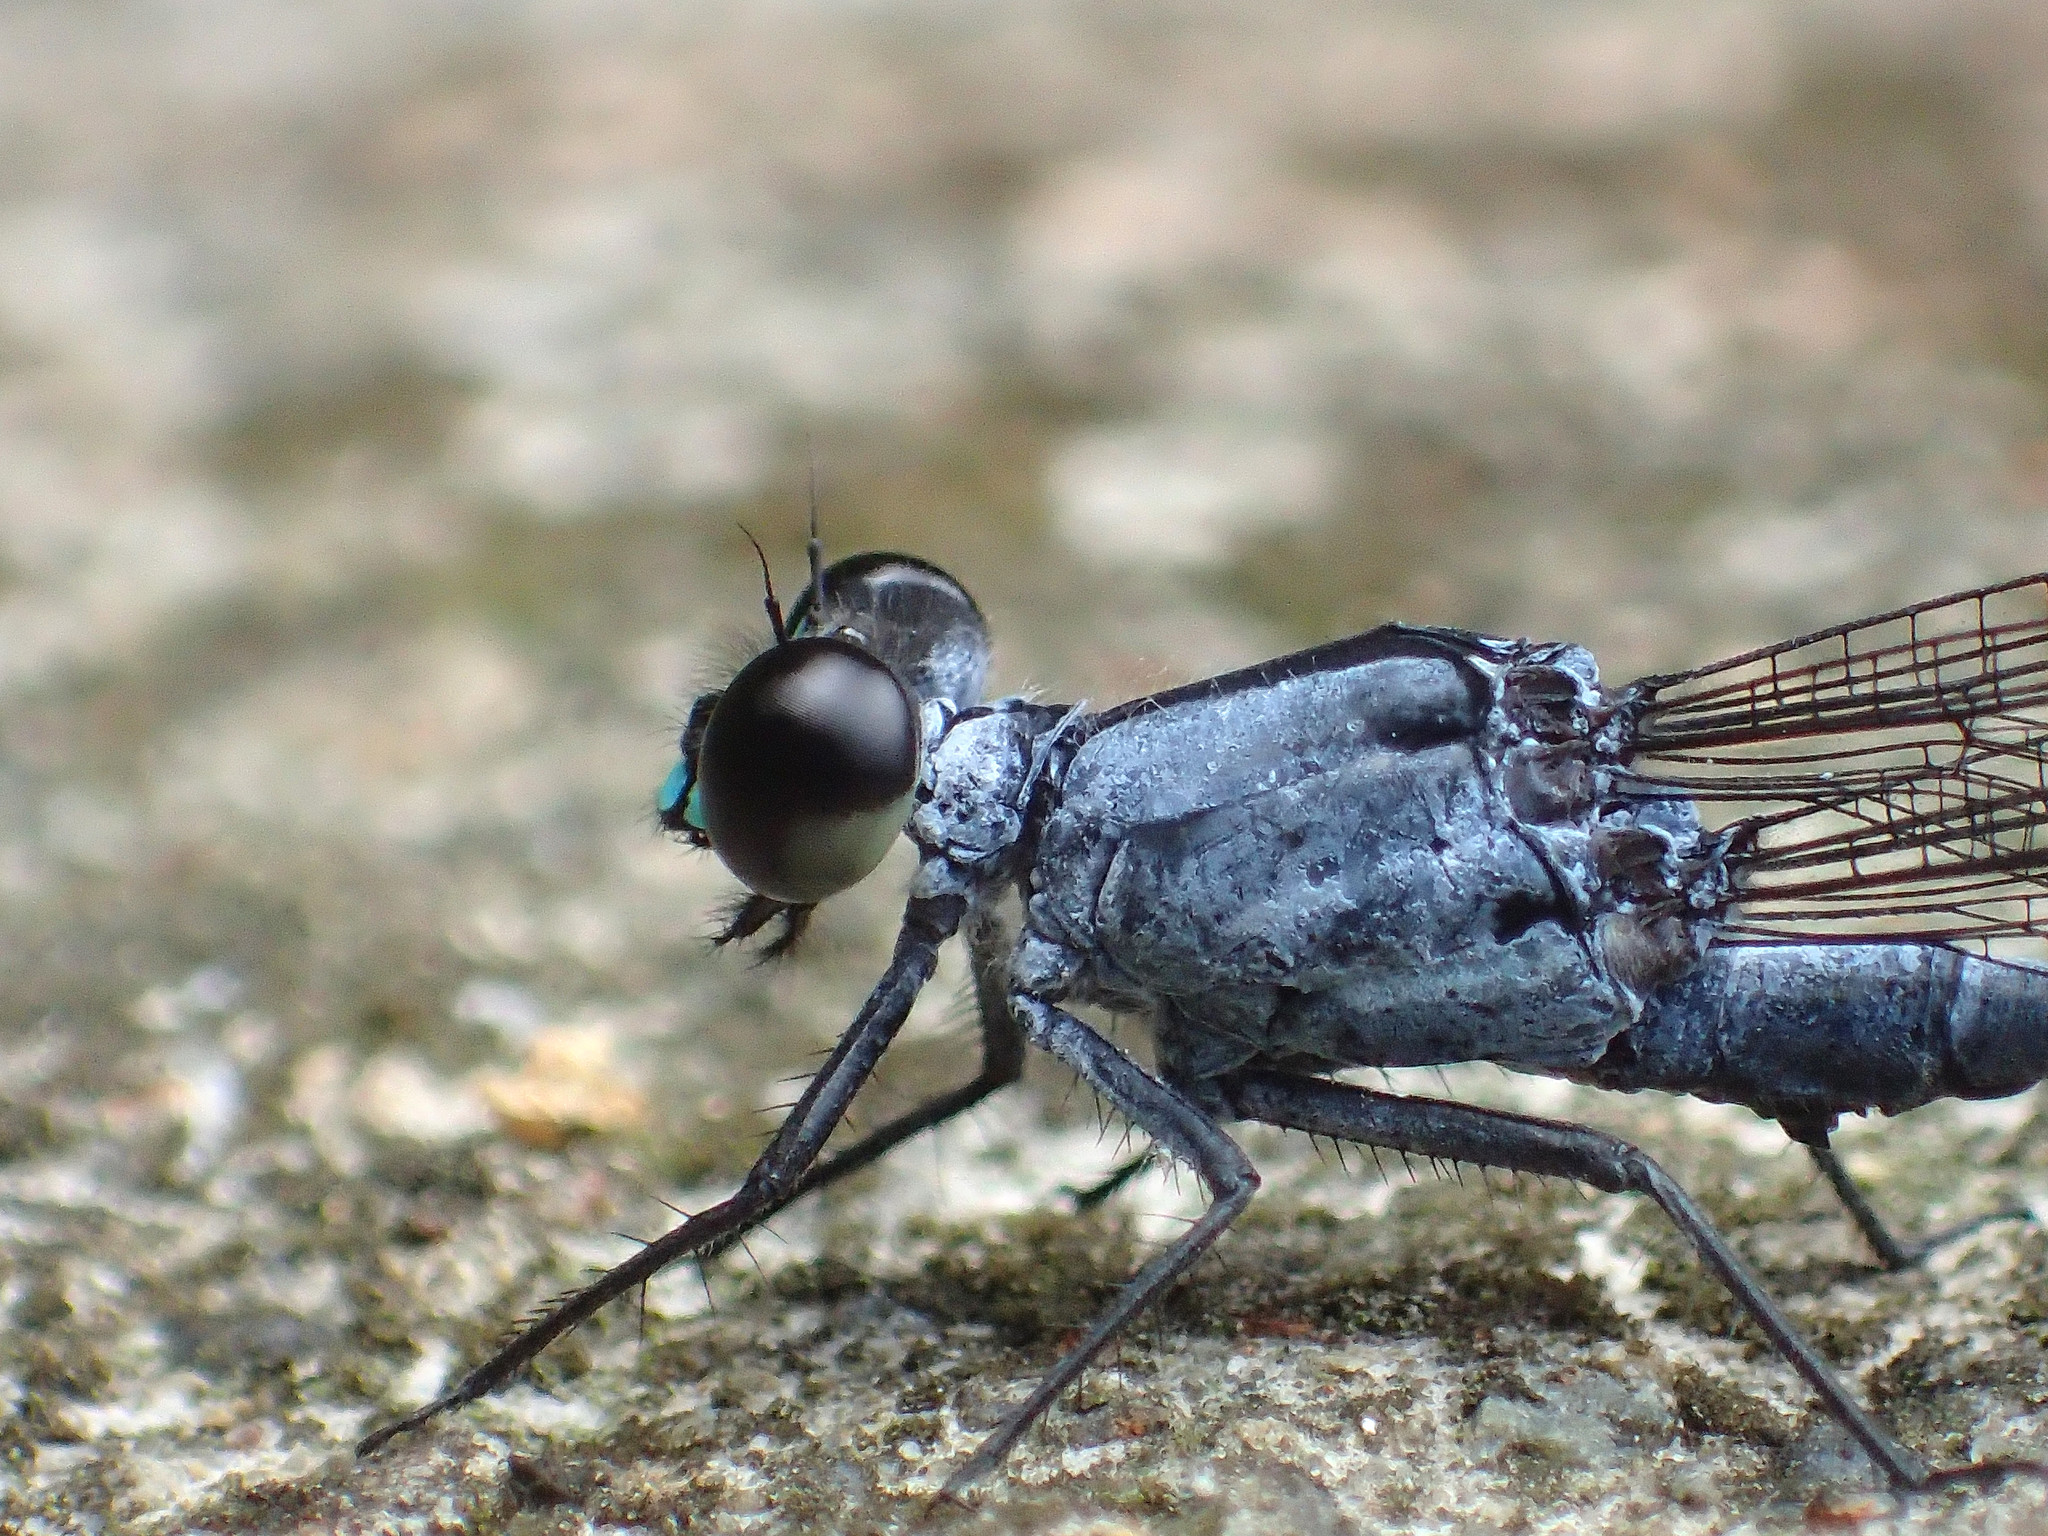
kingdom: Animalia
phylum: Arthropoda
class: Insecta
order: Odonata
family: Euphaeidae
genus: Bayadera
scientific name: Bayadera brevicauda
